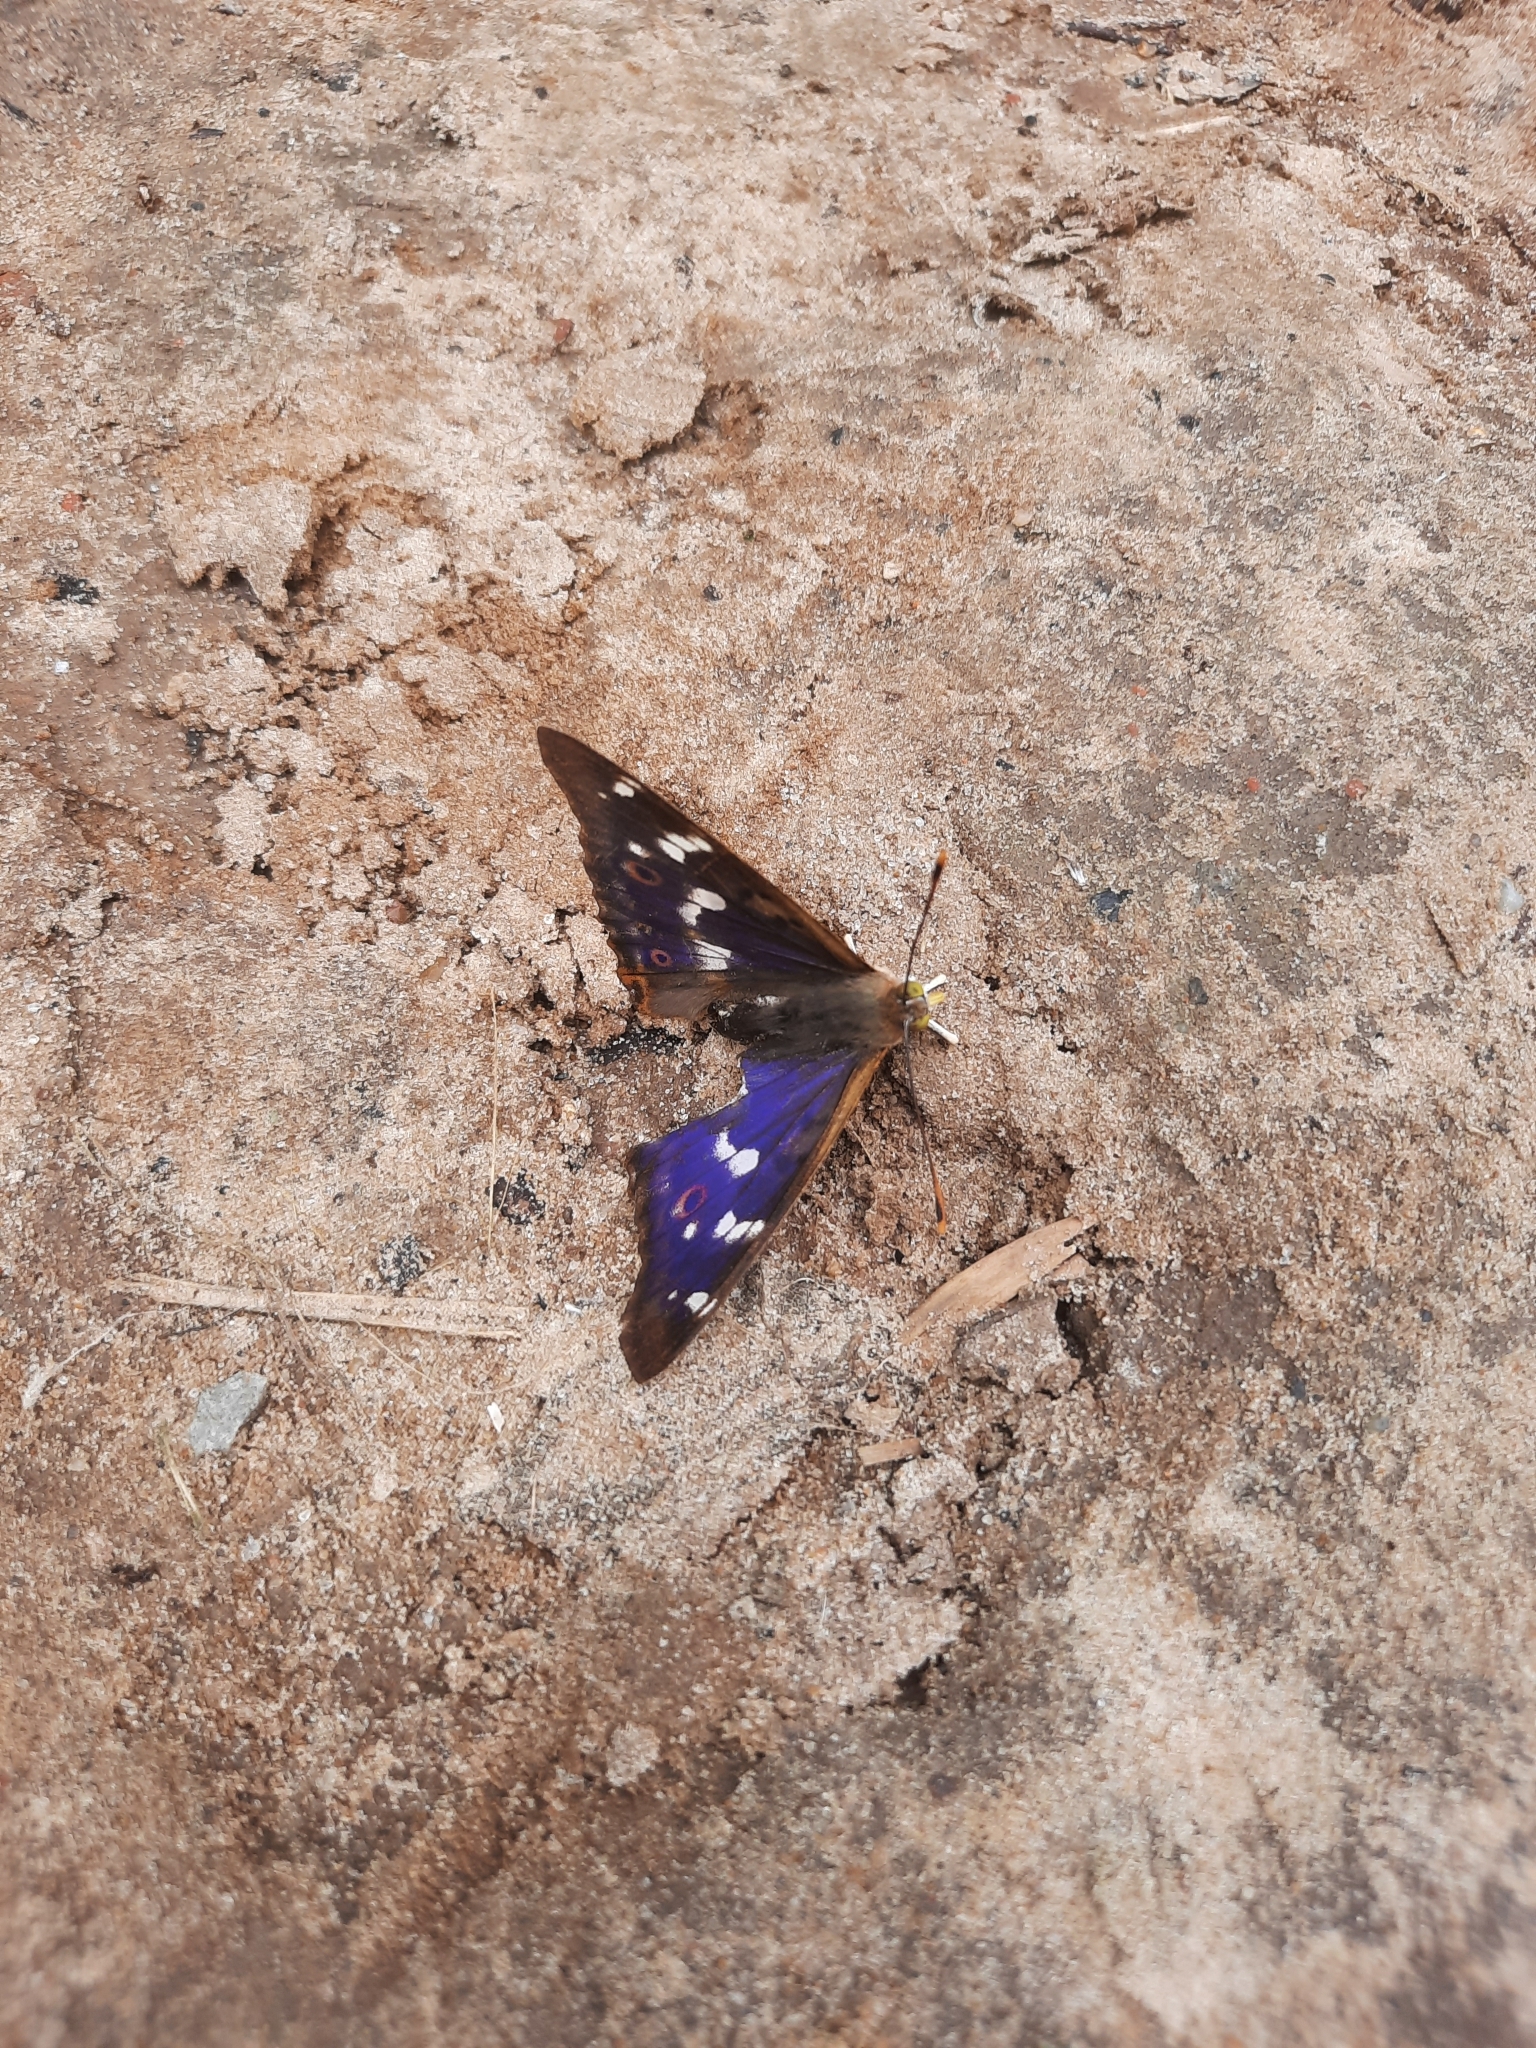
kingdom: Animalia
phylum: Arthropoda
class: Insecta
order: Lepidoptera
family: Nymphalidae
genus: Apatura
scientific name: Apatura ilia
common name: Lesser purple emperor
